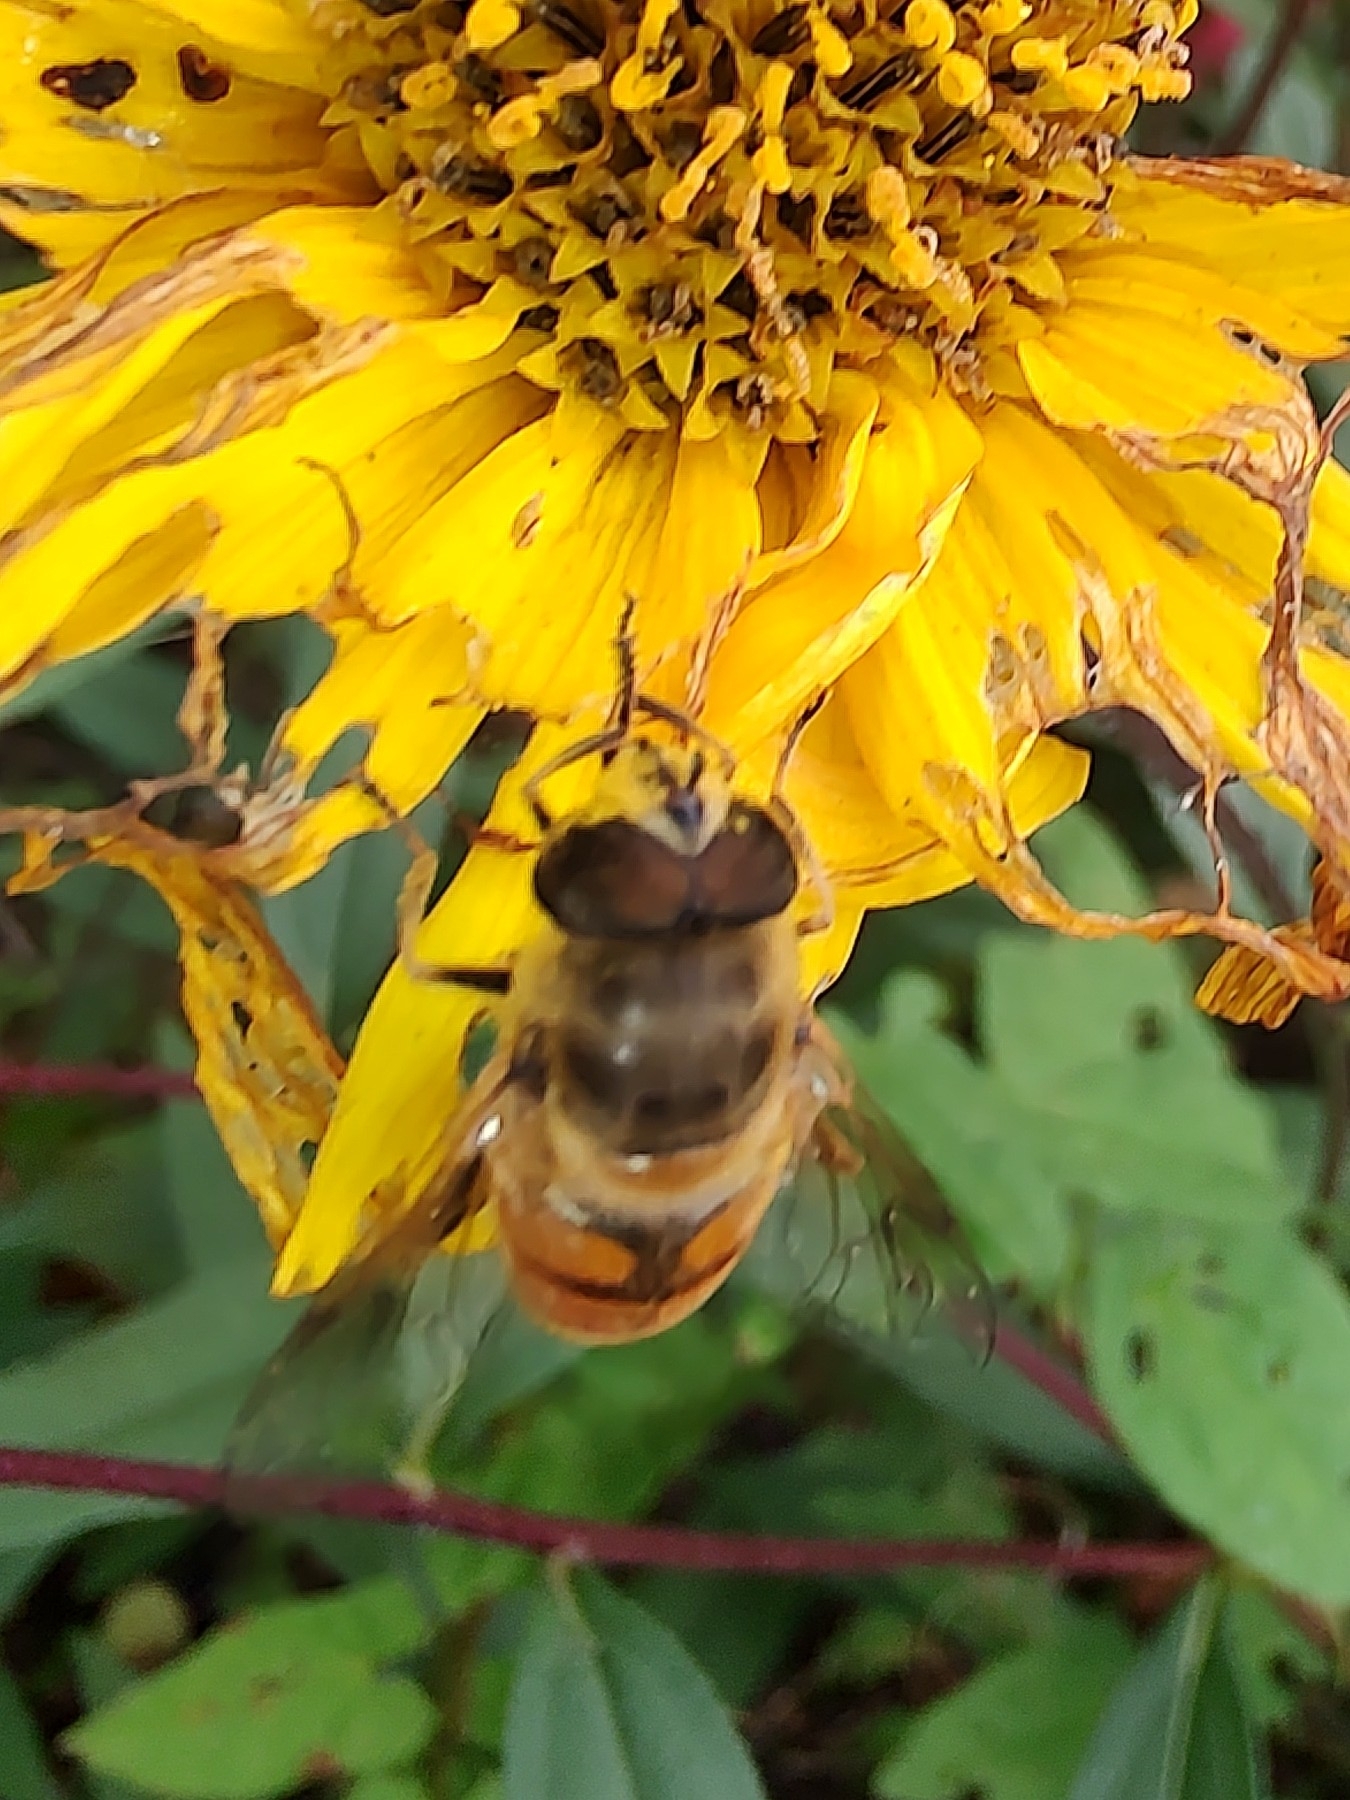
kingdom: Animalia
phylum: Arthropoda
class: Insecta
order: Diptera
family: Syrphidae
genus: Eristalis
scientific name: Eristalis tenax
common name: Drone fly
